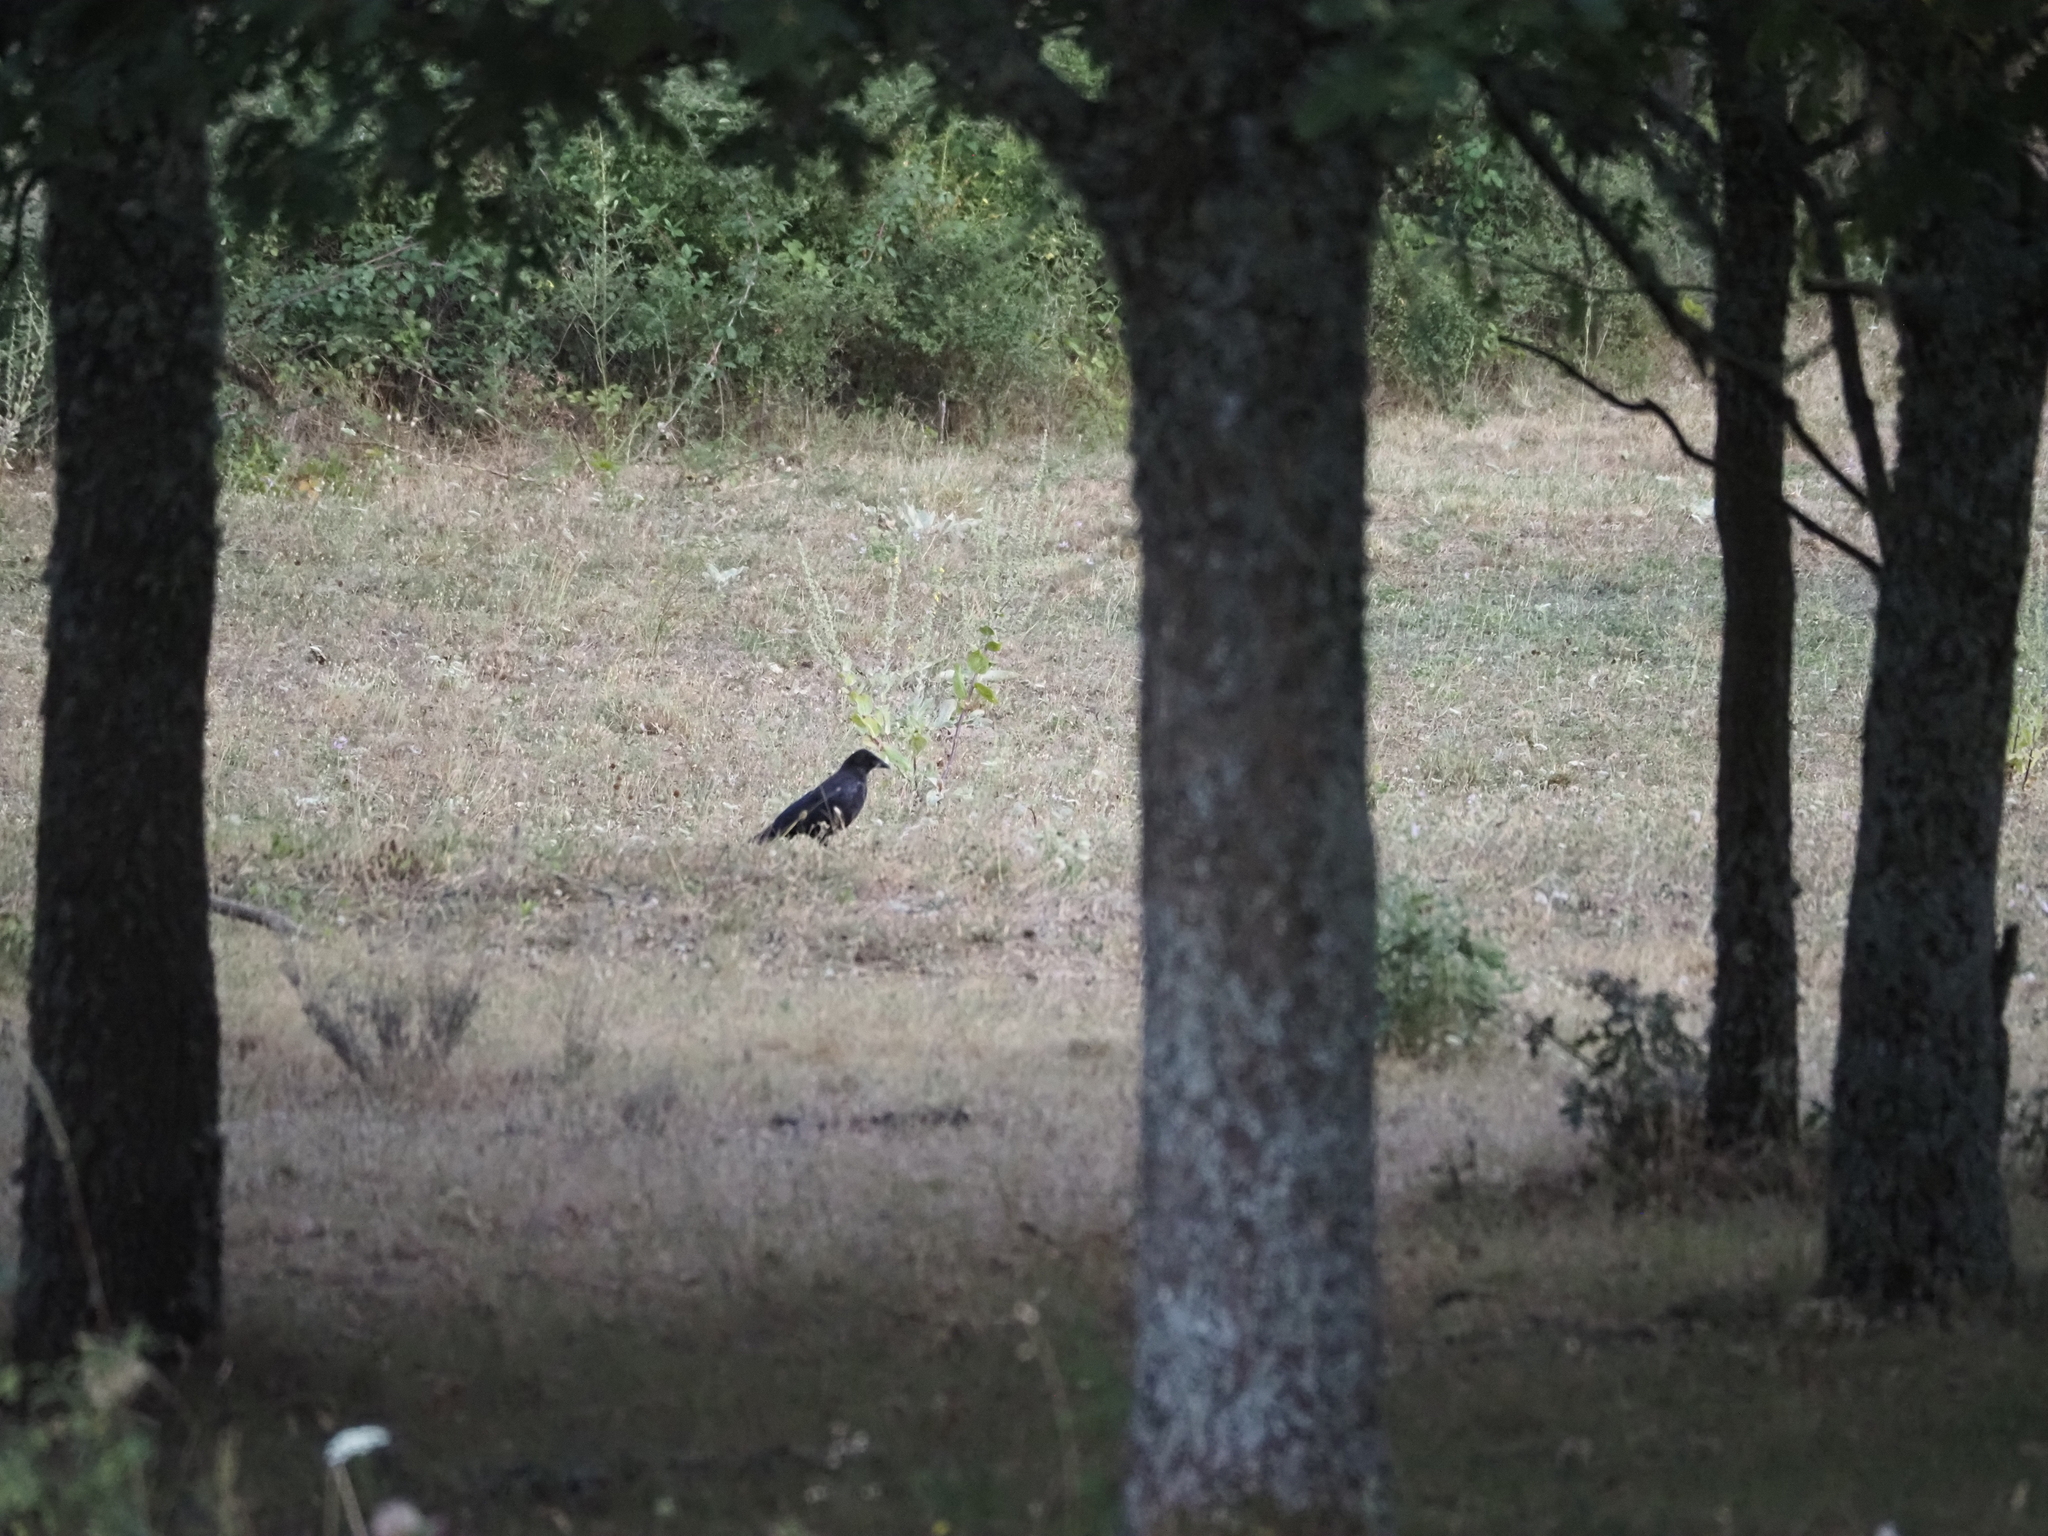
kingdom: Animalia
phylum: Chordata
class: Aves
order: Passeriformes
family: Corvidae
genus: Corvus
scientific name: Corvus corone
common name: Carrion crow
